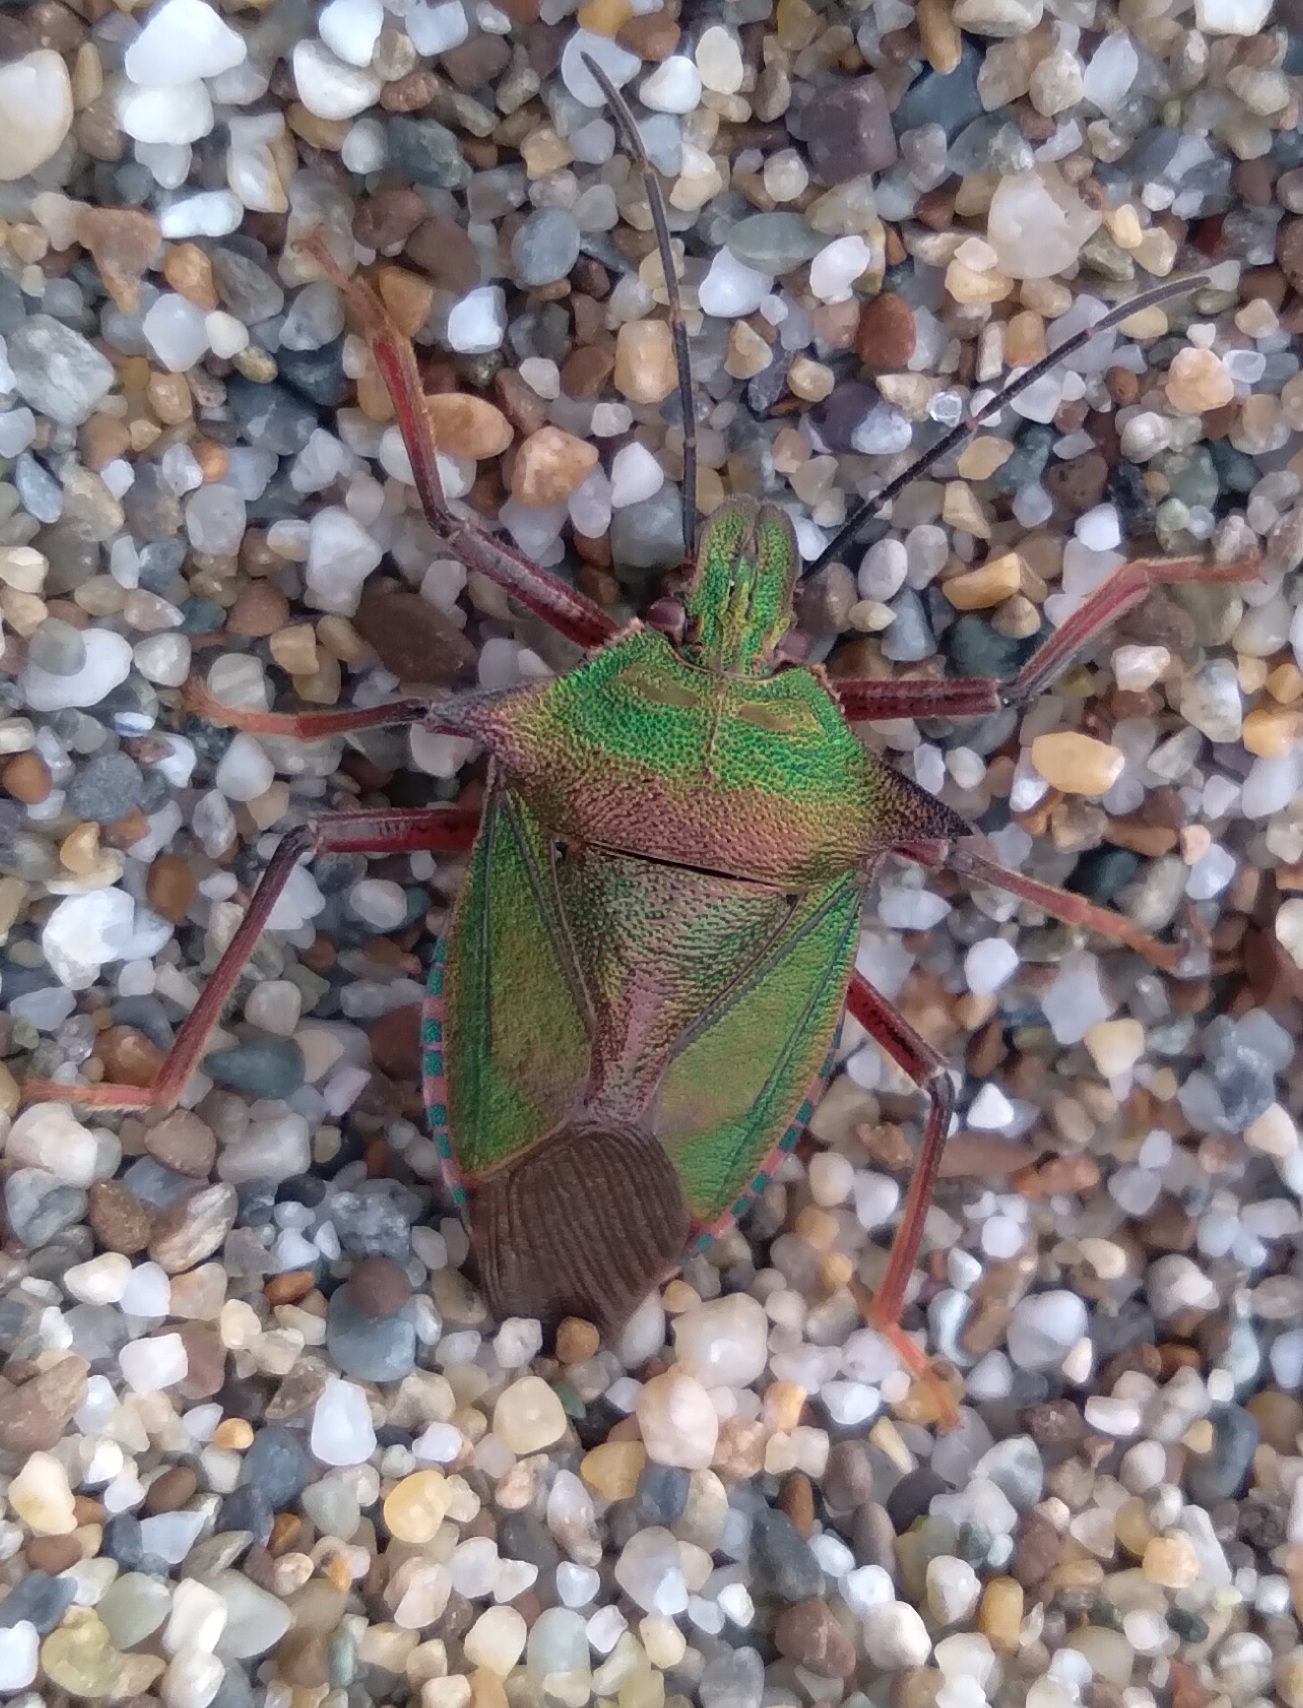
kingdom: Animalia
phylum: Arthropoda
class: Insecta
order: Hemiptera
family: Pentatomidae
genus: Dinorhynchus
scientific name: Dinorhynchus dybowskyi
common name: Stink bug
